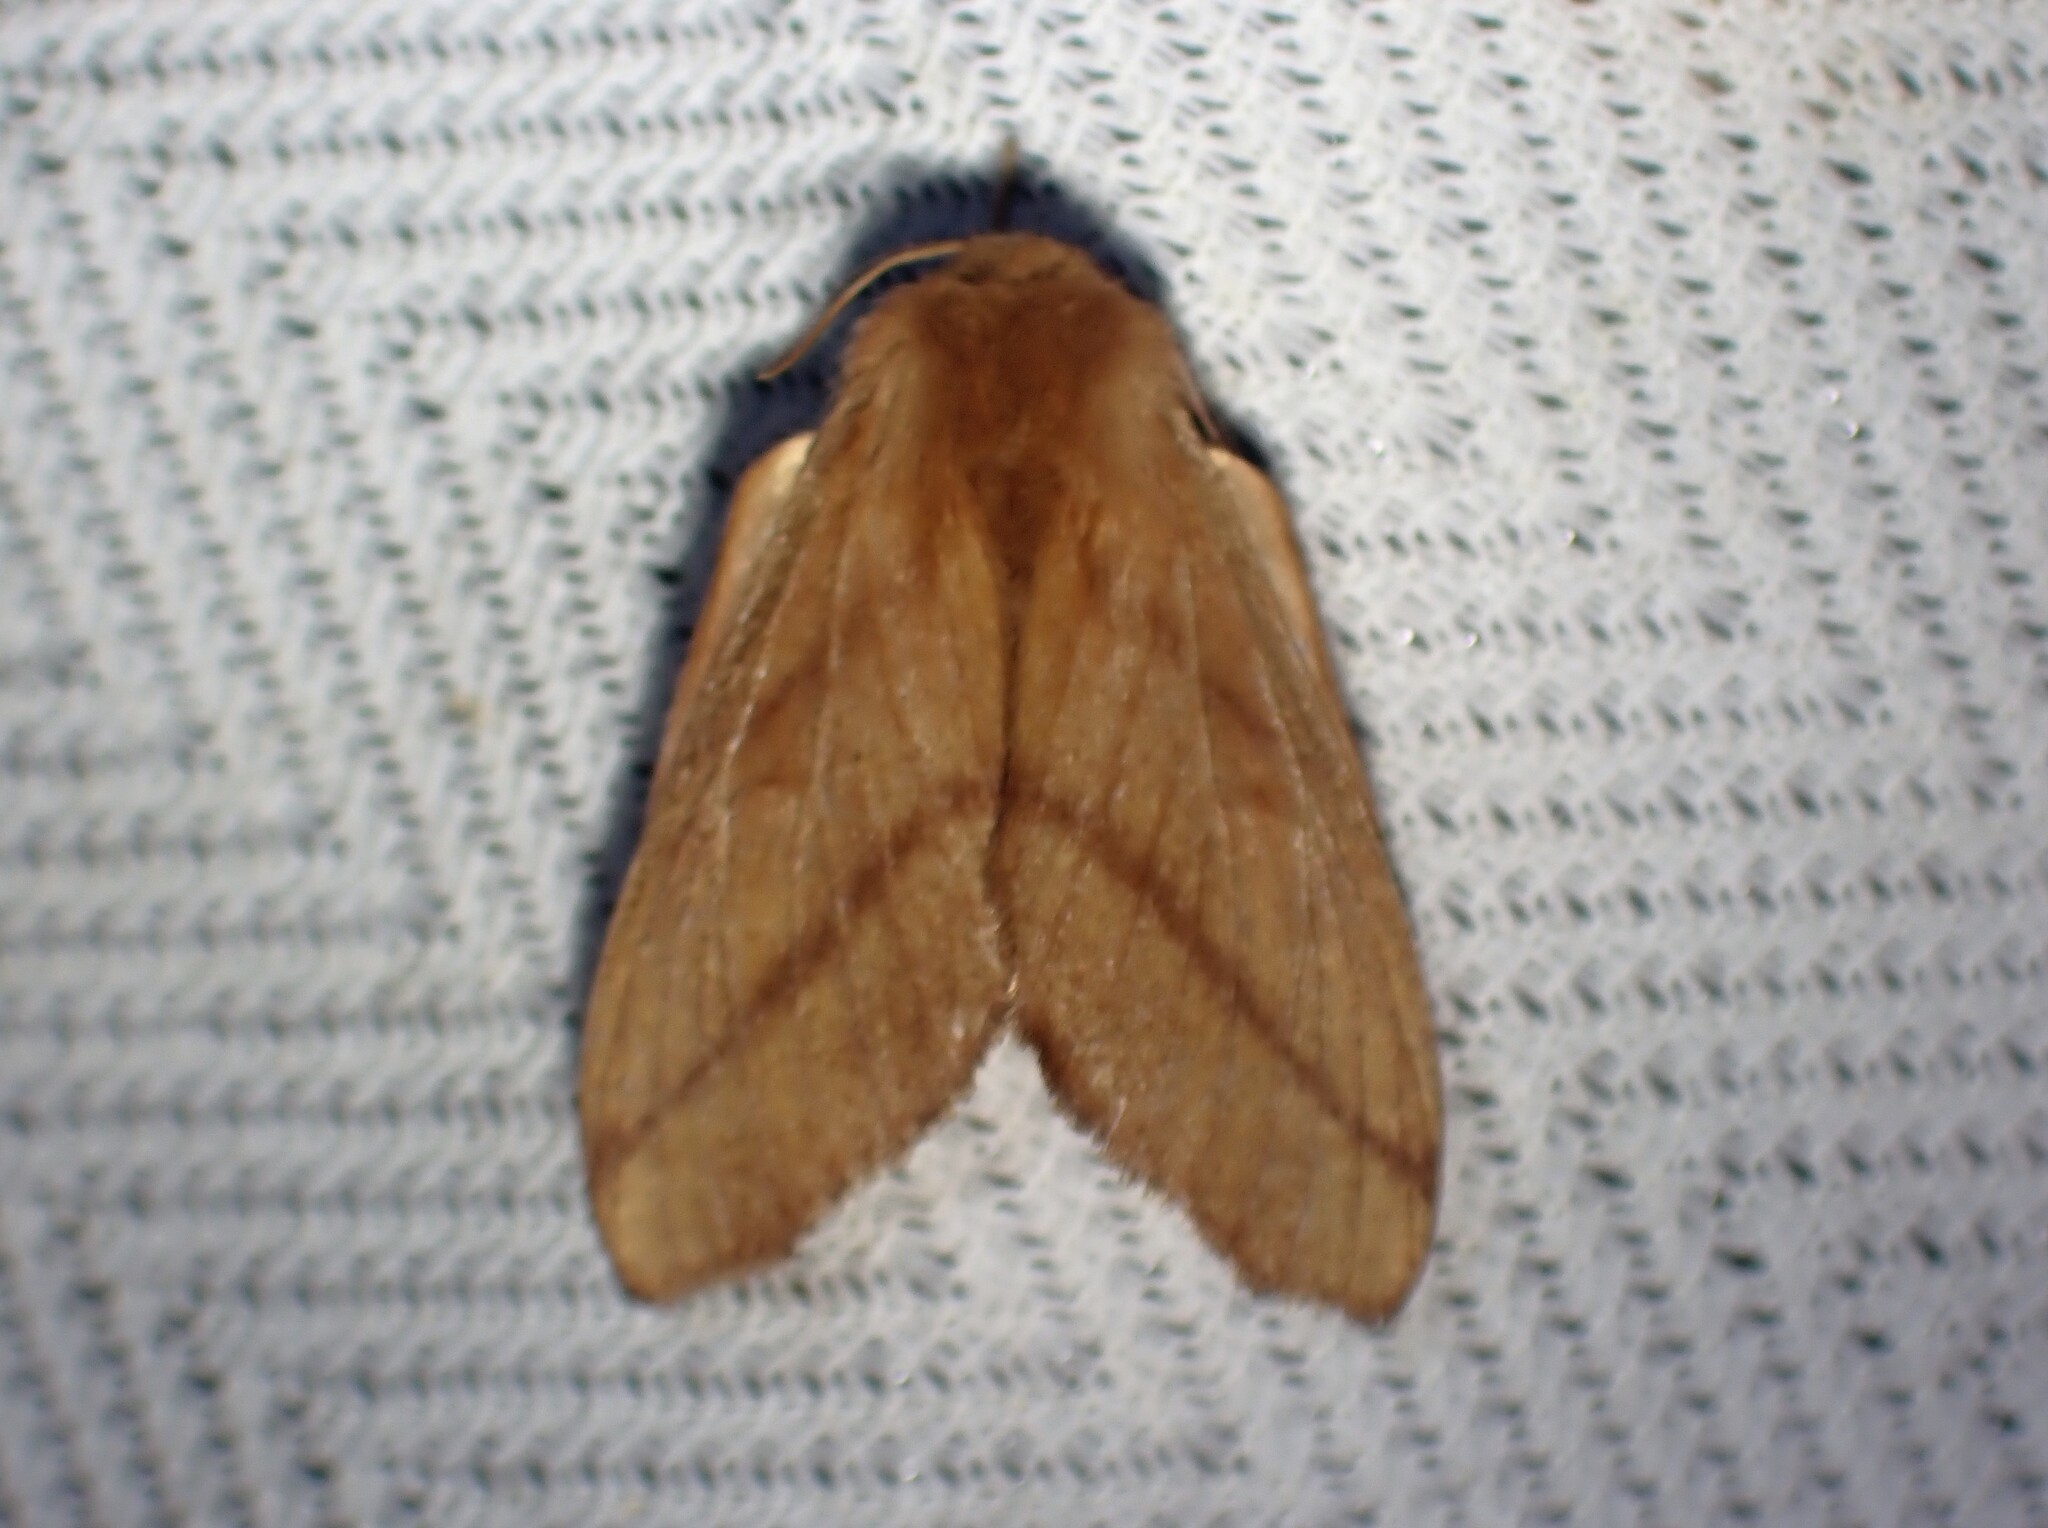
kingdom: Animalia
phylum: Arthropoda
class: Insecta
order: Lepidoptera
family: Lasiocampidae
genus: Malacosoma
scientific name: Malacosoma disstria
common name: Forest tent caterpillar
